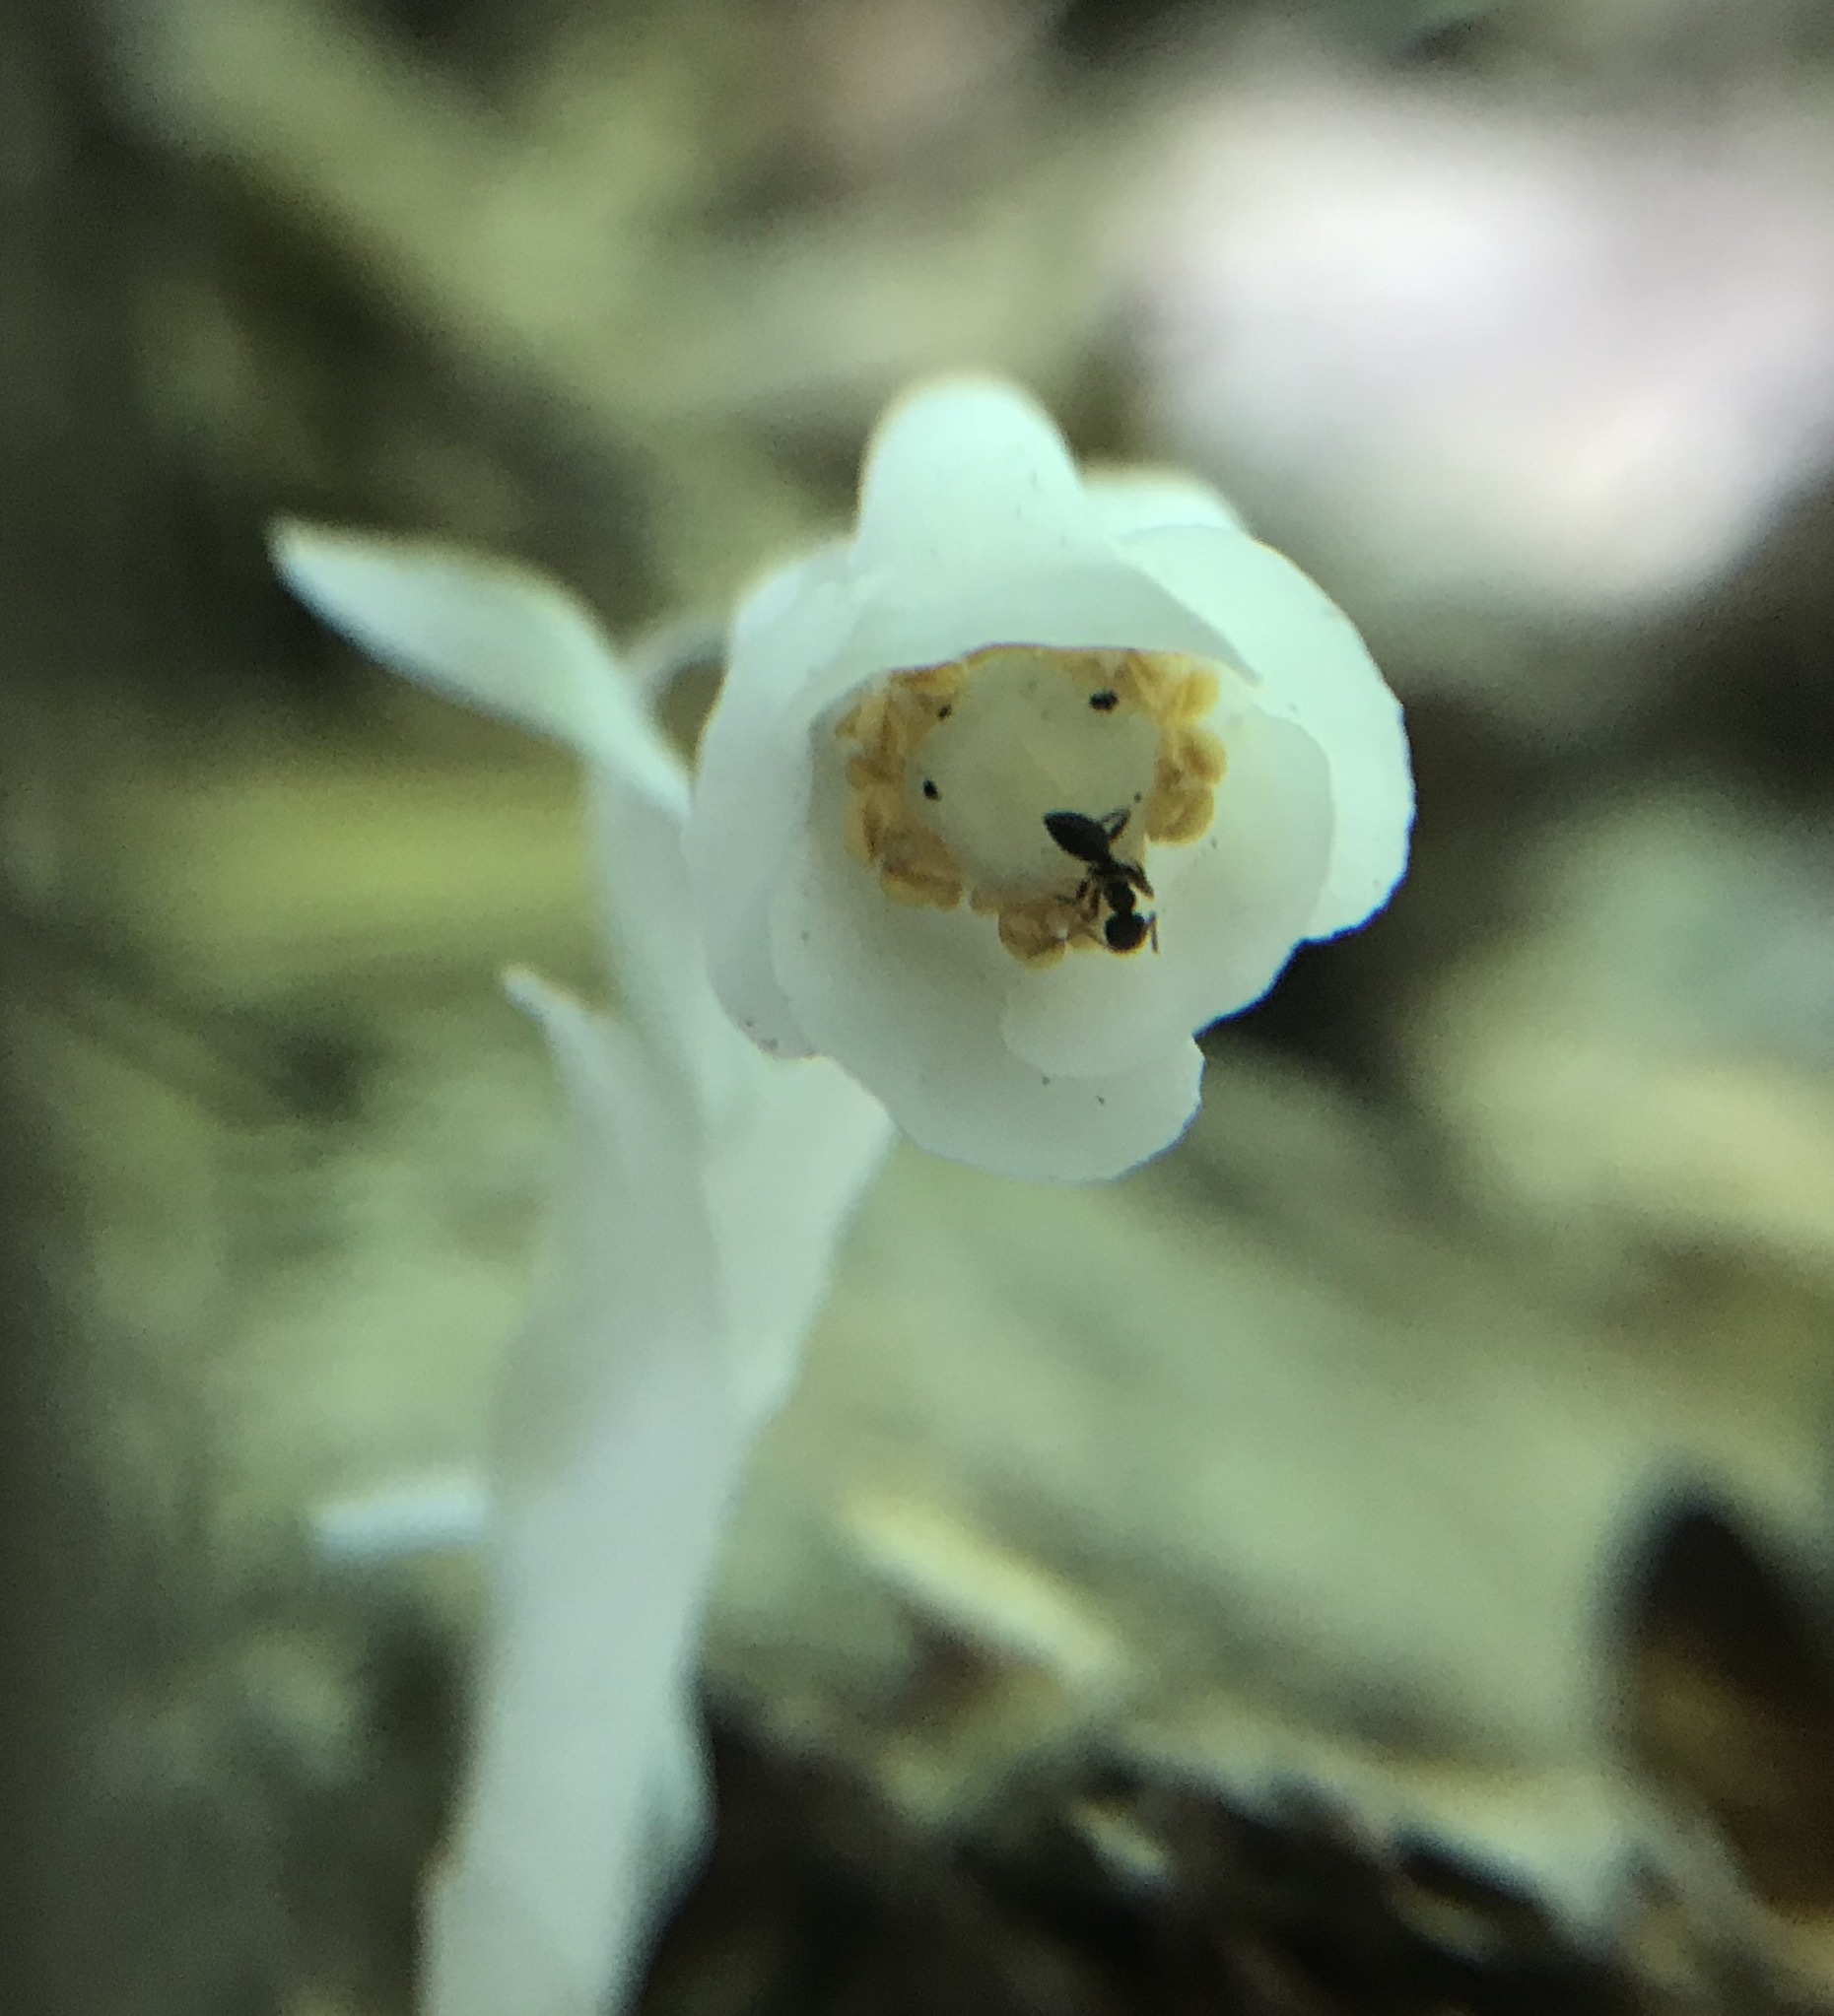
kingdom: Plantae
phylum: Tracheophyta
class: Magnoliopsida
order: Ericales
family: Ericaceae
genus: Monotropa
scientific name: Monotropa uniflora
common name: Convulsion root
